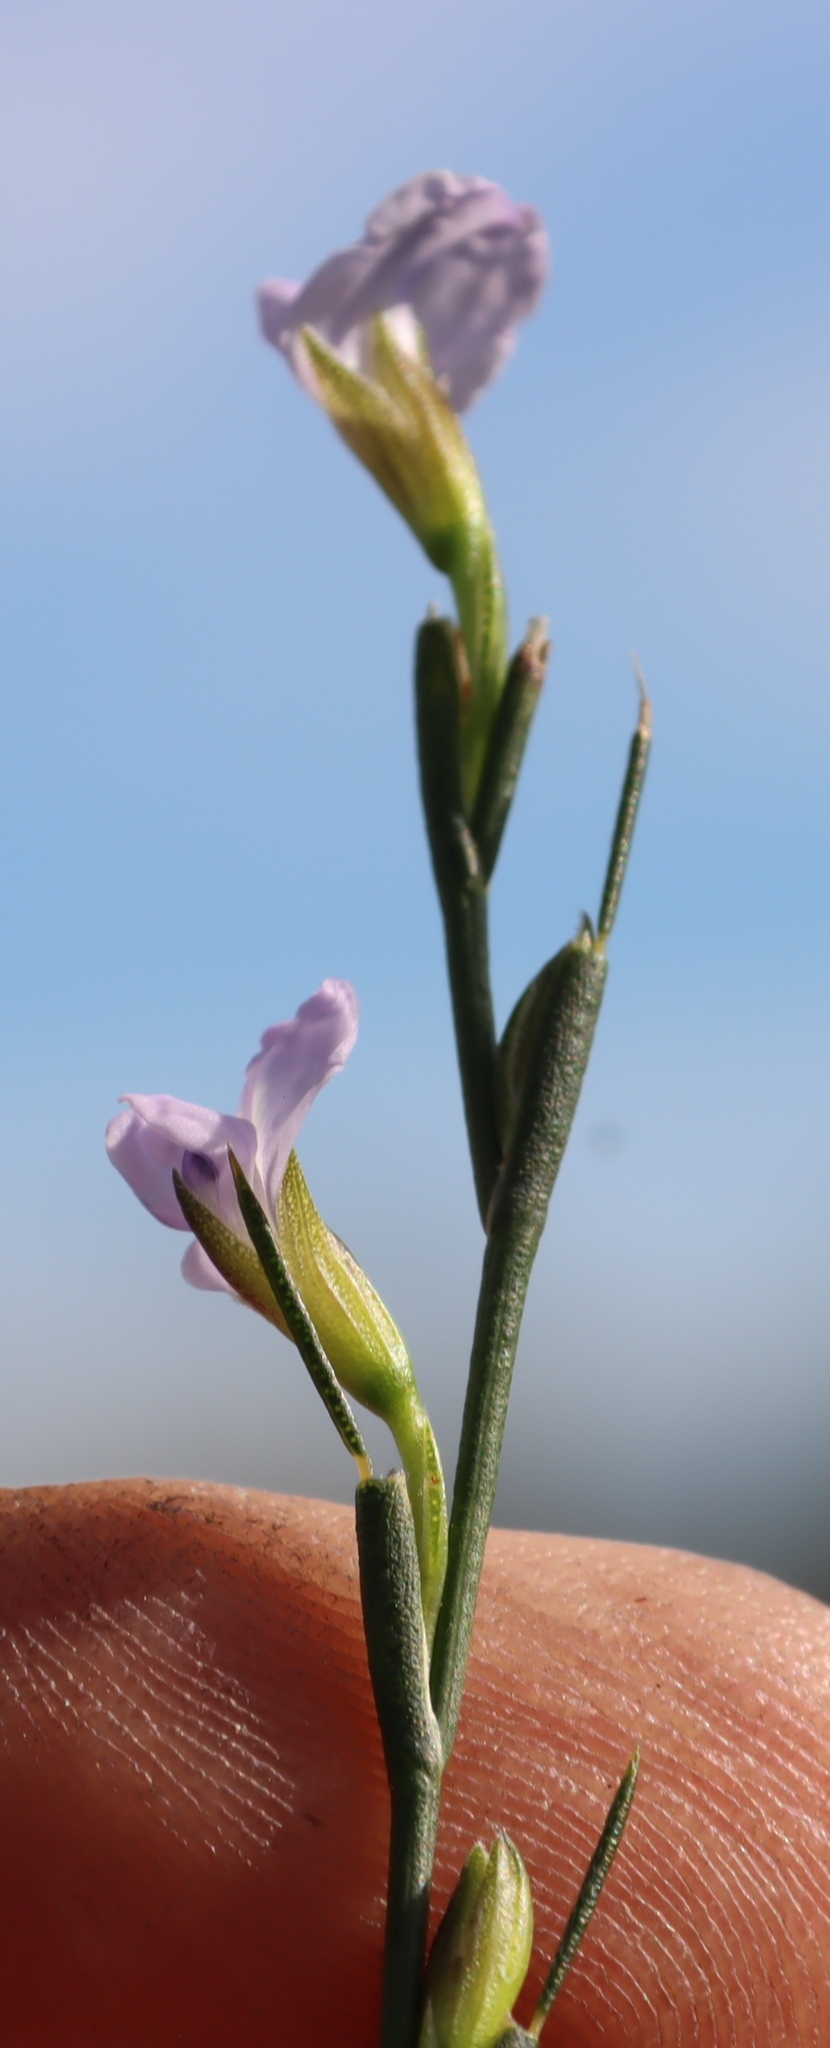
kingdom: Plantae
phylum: Tracheophyta
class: Magnoliopsida
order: Fabales
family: Fabaceae
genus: Psoralea
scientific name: Psoralea restioides
